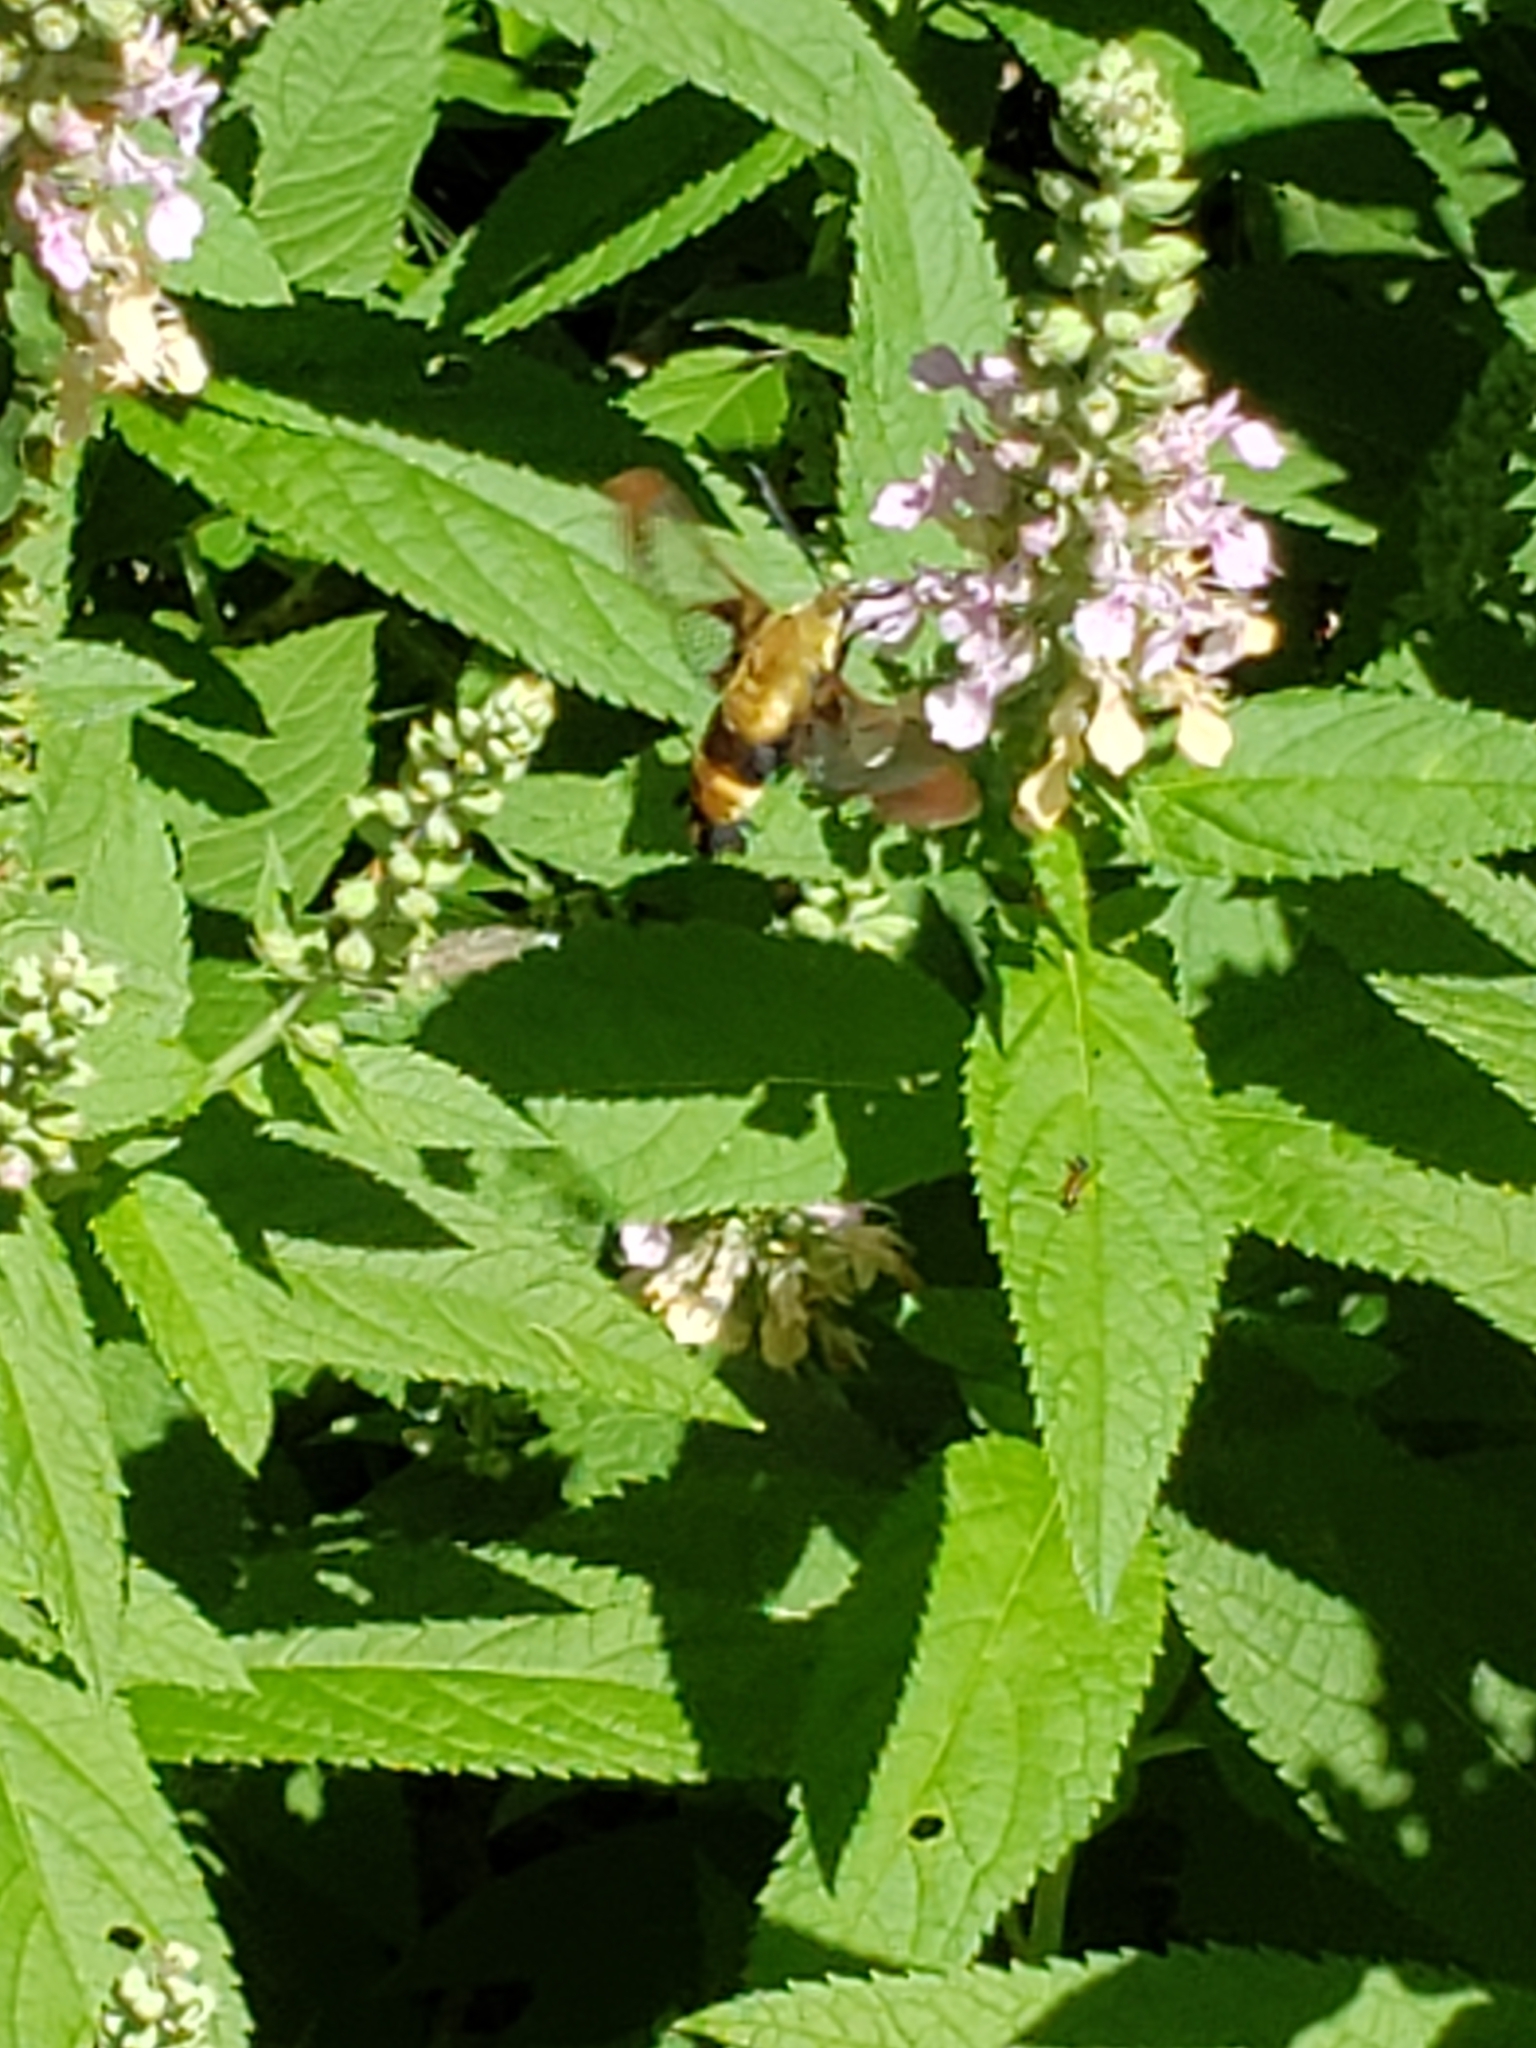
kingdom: Animalia
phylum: Arthropoda
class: Insecta
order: Lepidoptera
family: Sphingidae
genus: Hemaris
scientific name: Hemaris diffinis
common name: Bumblebee moth
